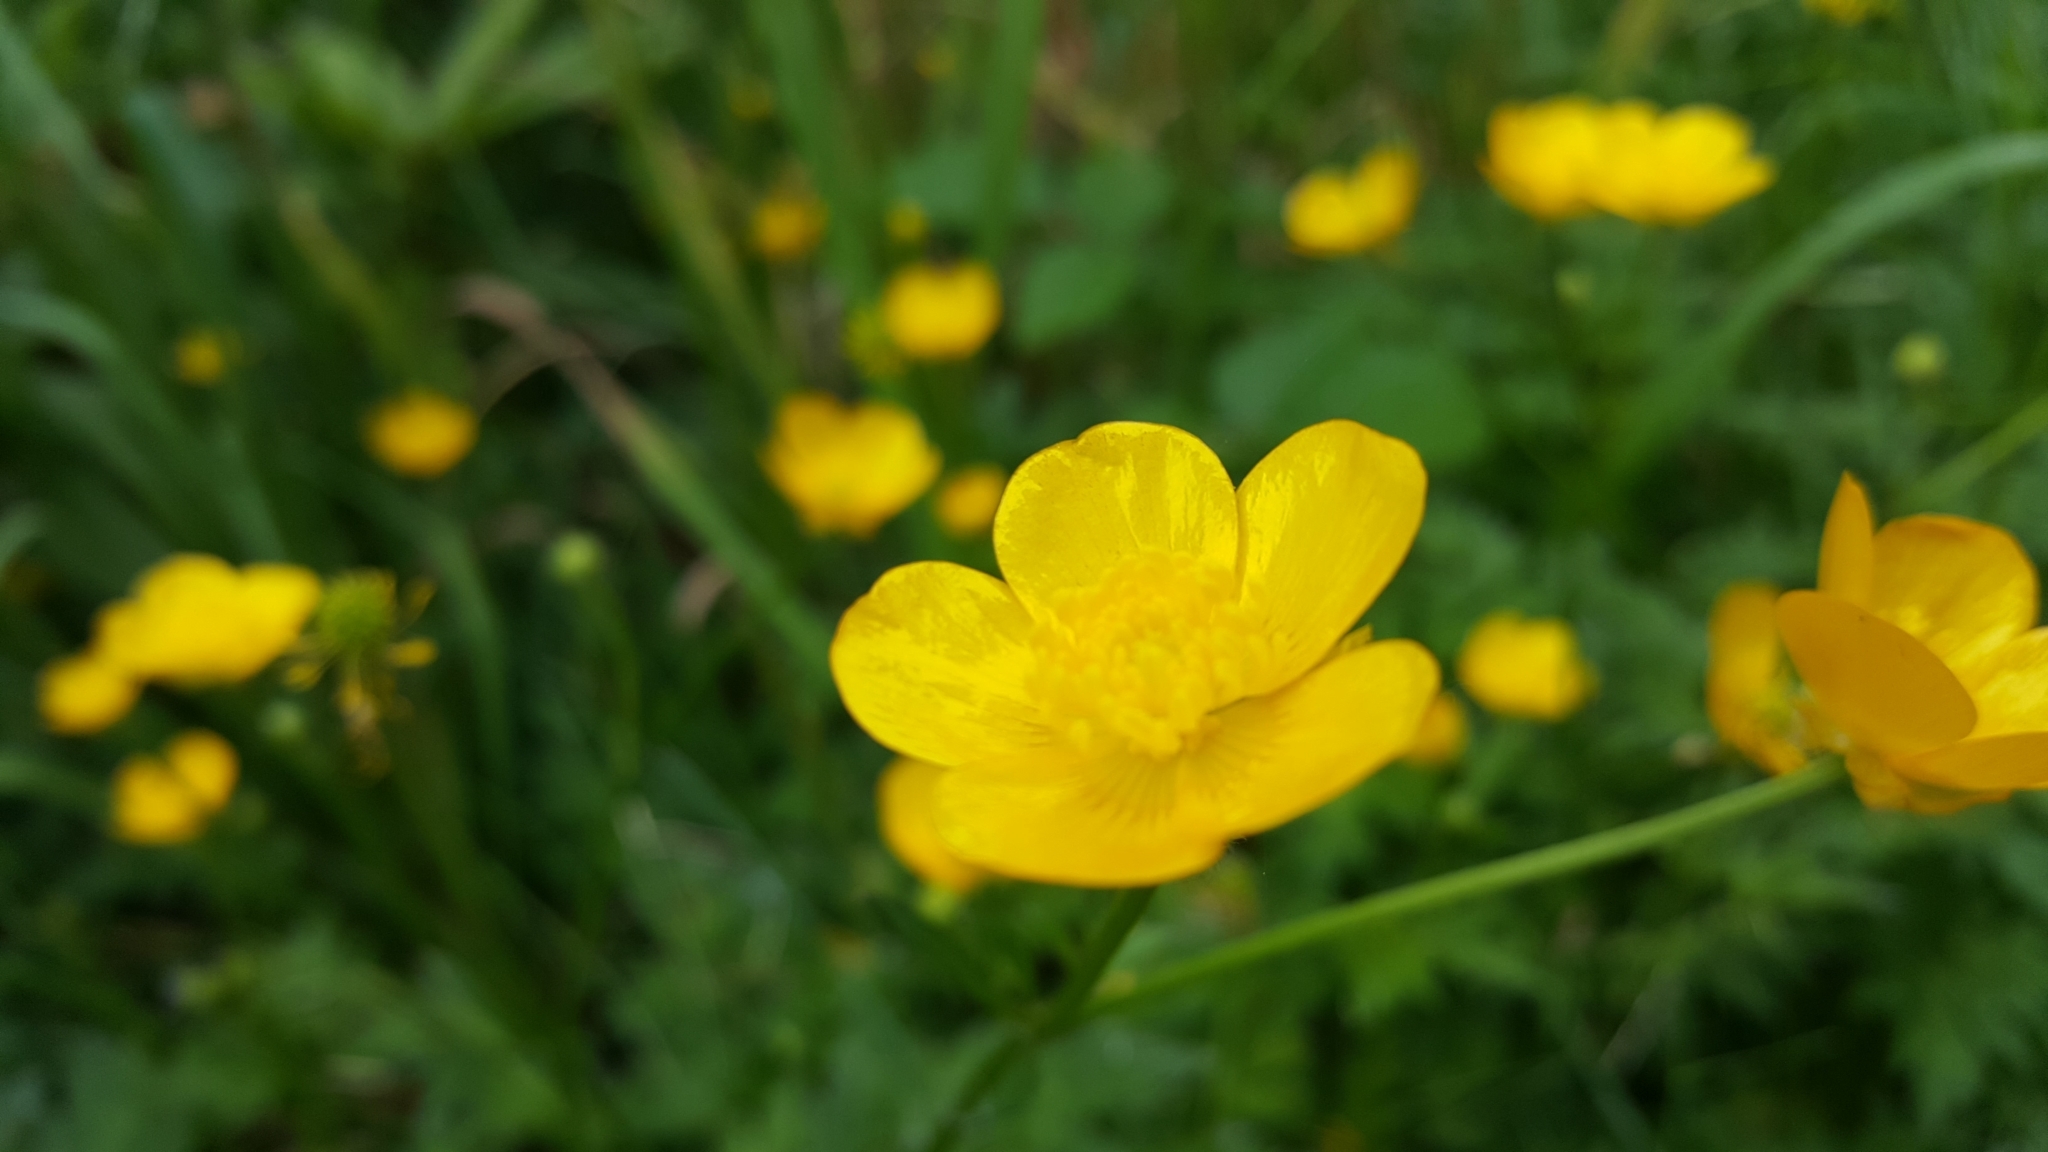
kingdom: Plantae
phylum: Tracheophyta
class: Magnoliopsida
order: Ranunculales
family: Ranunculaceae
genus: Ranunculus
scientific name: Ranunculus repens
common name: Creeping buttercup
